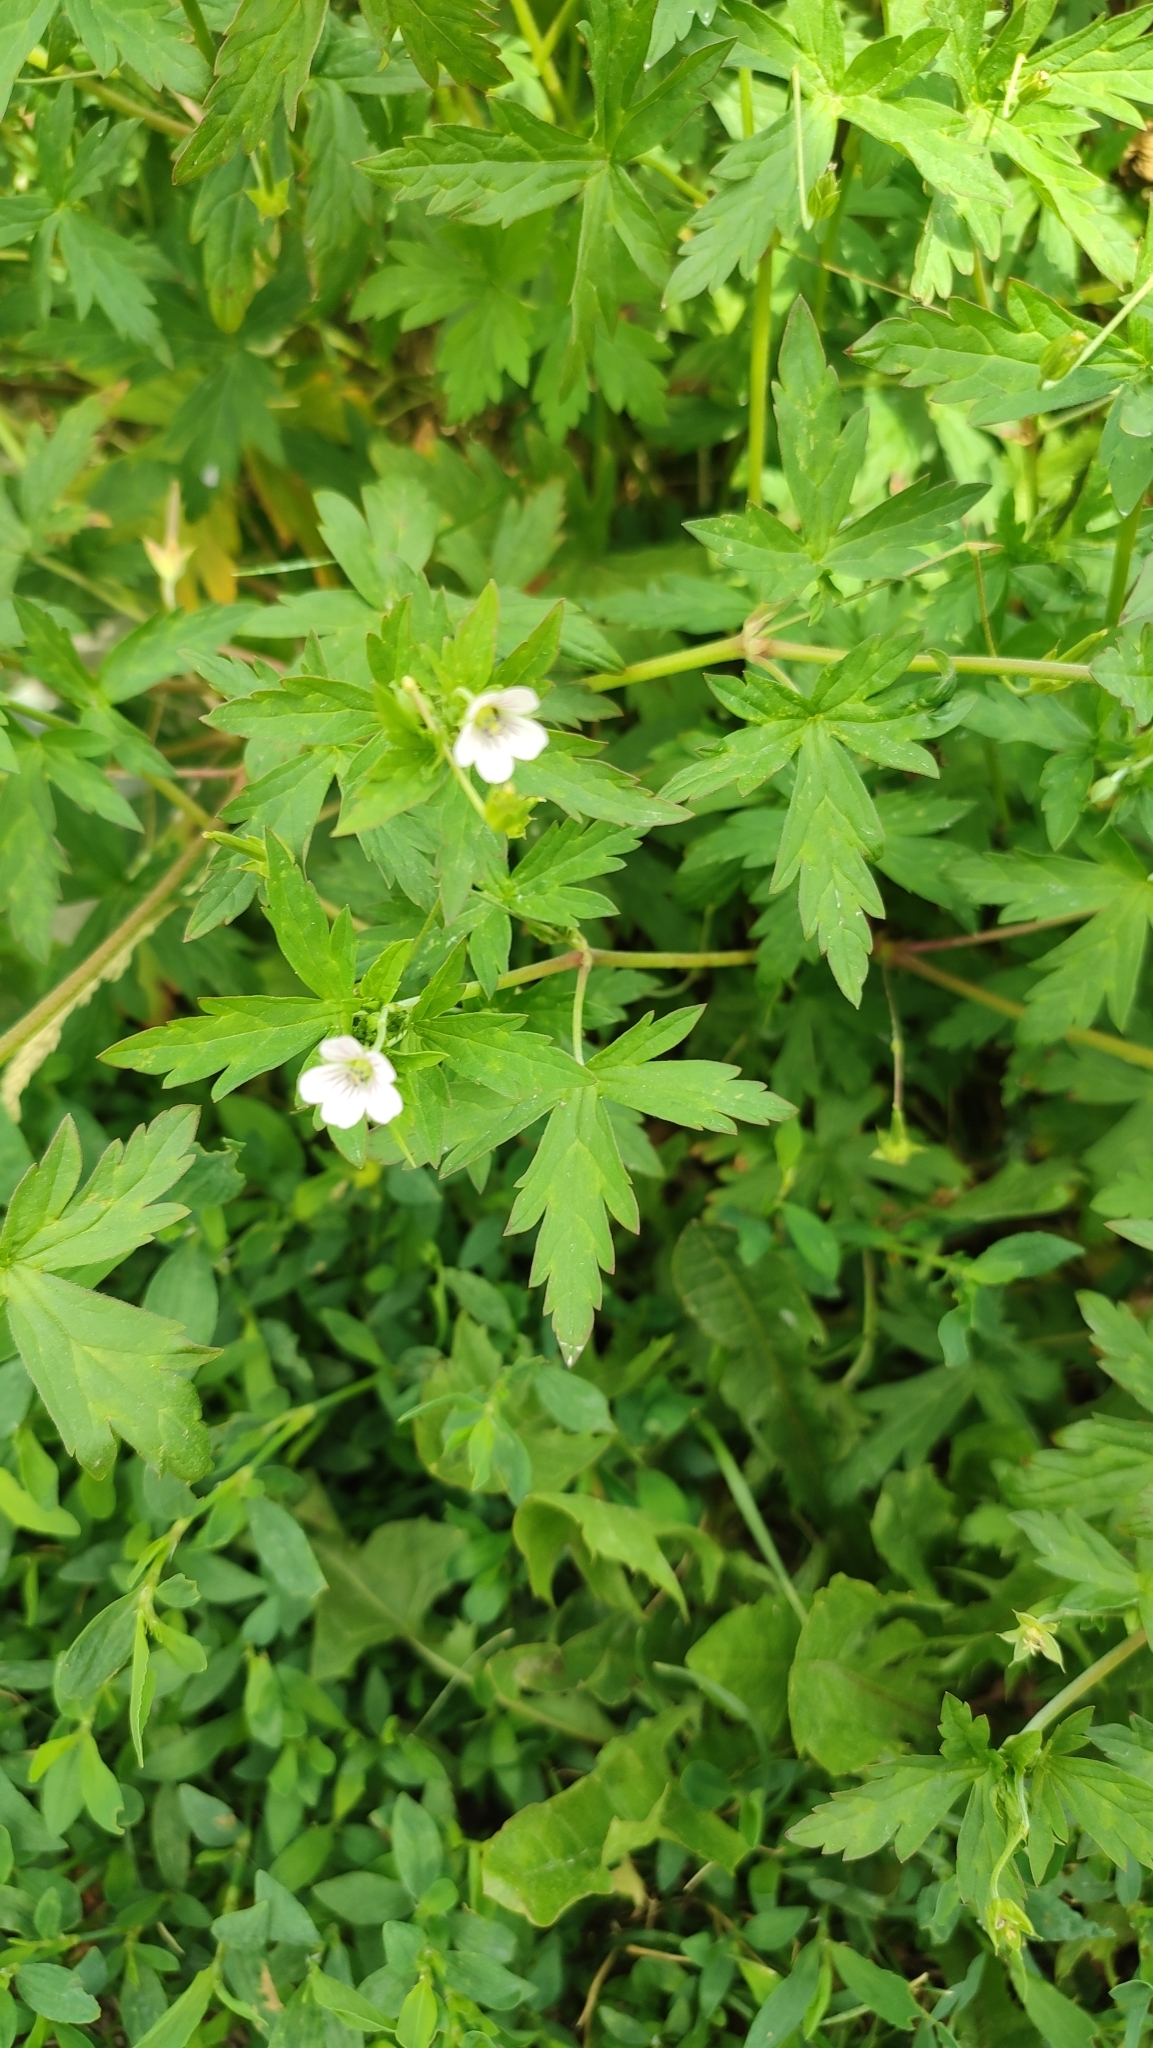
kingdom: Plantae
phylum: Tracheophyta
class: Magnoliopsida
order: Geraniales
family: Geraniaceae
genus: Geranium
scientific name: Geranium sibiricum
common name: Siberian crane's-bill
